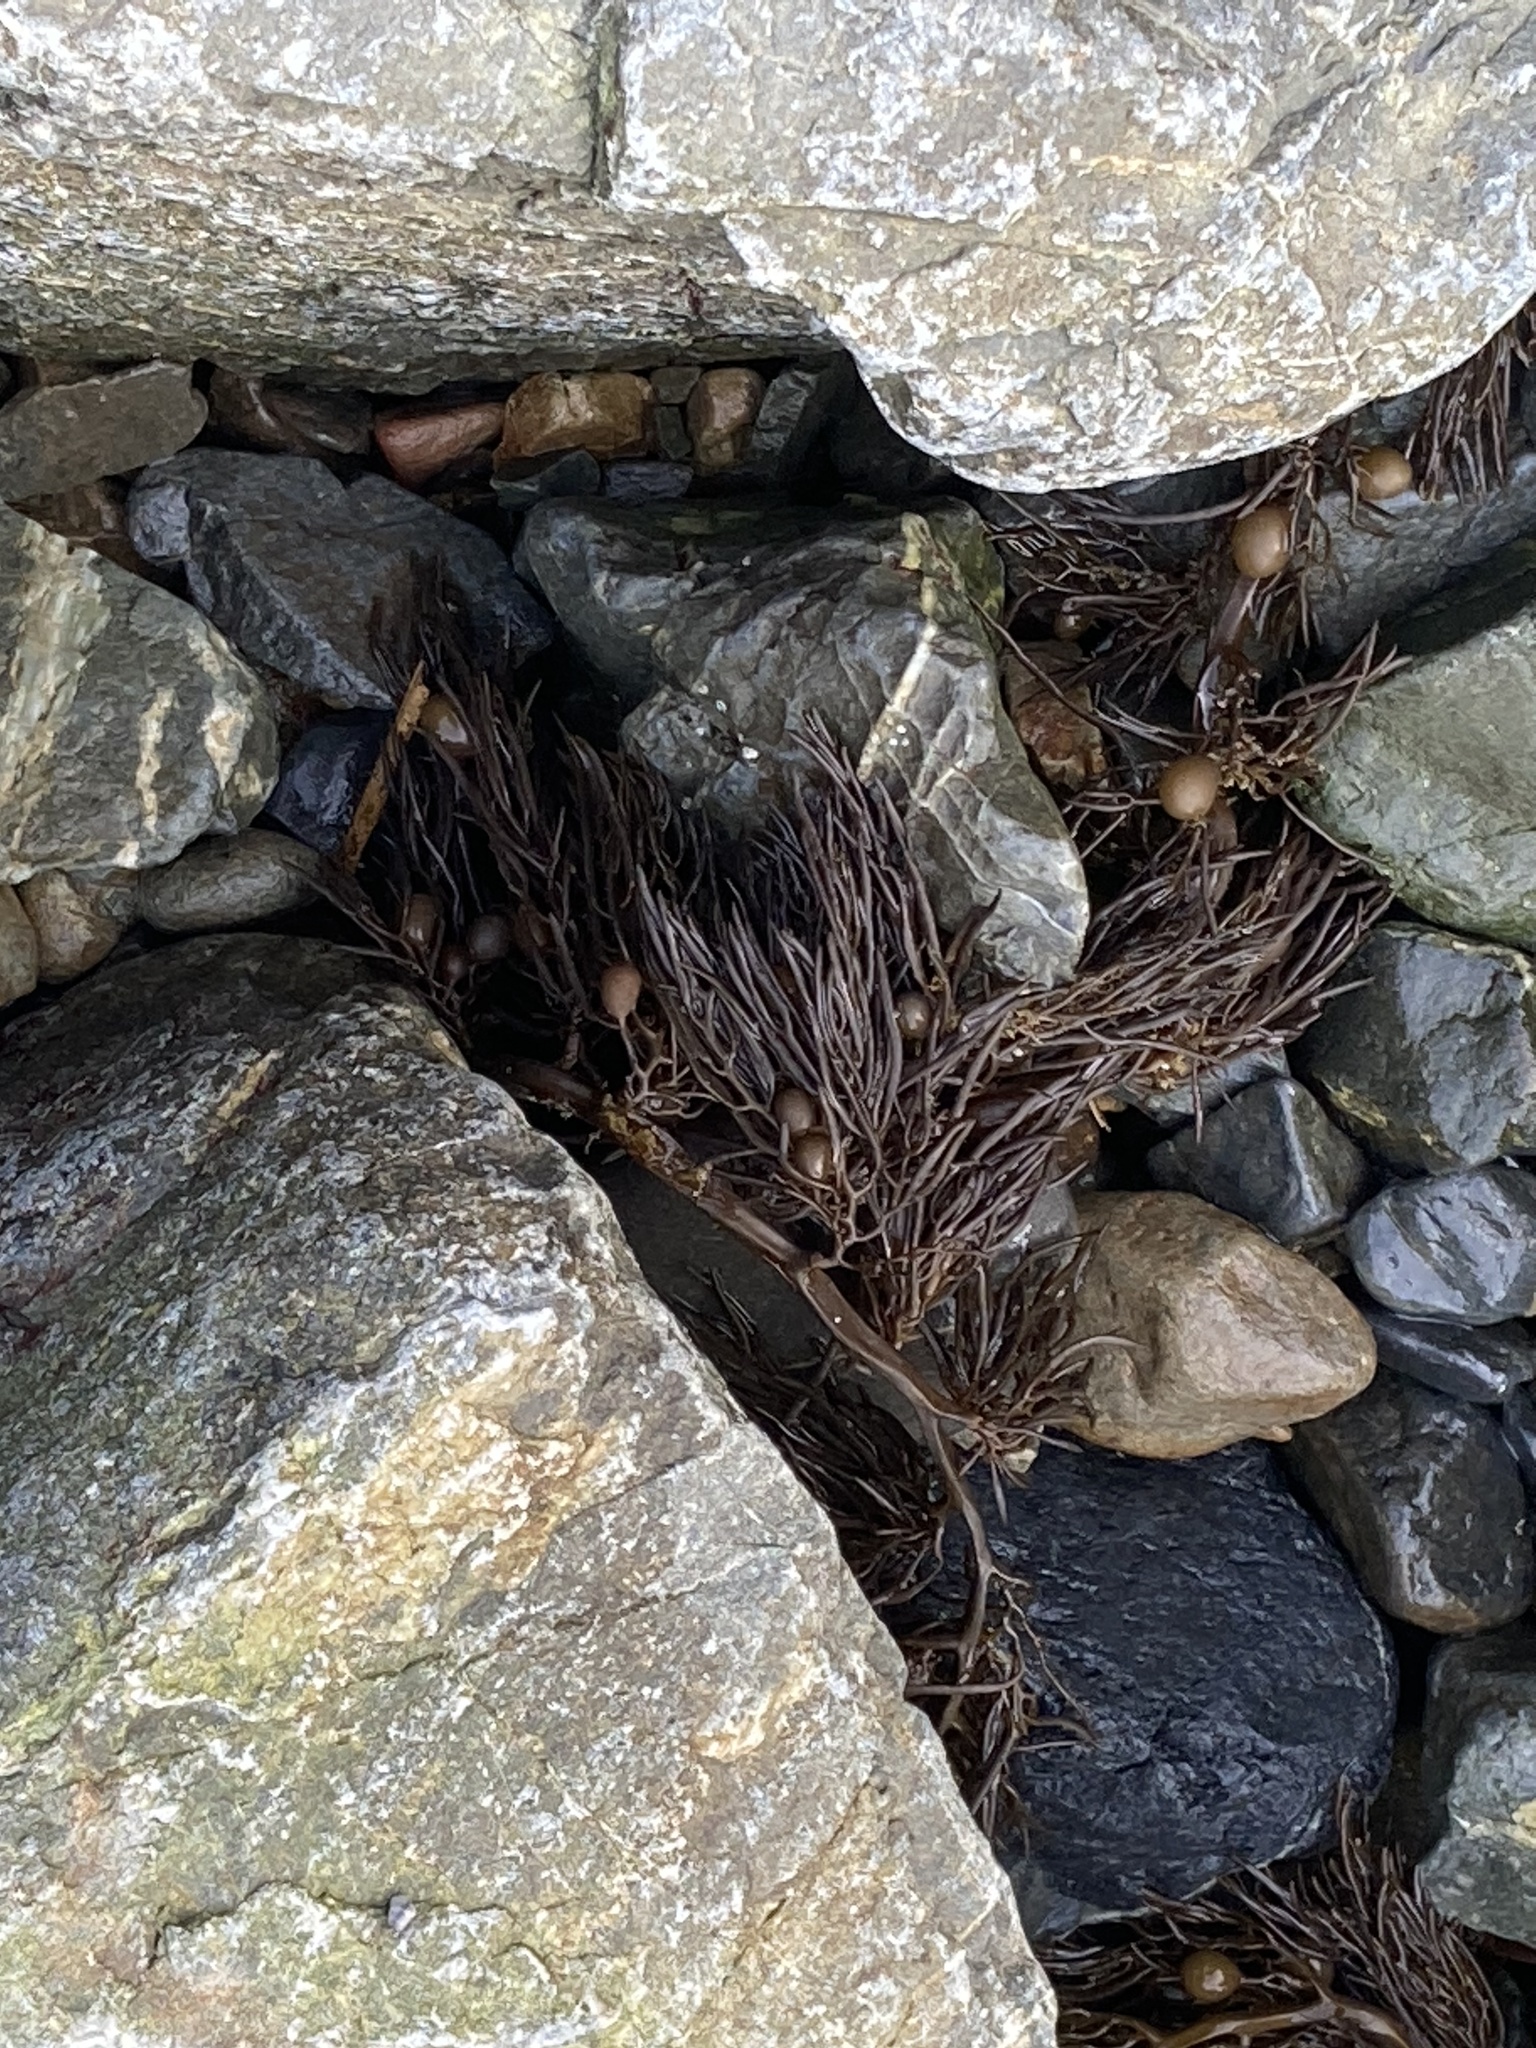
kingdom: Chromista
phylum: Ochrophyta
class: Phaeophyceae
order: Fucales
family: Sargassaceae
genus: Cystophora
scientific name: Cystophora retroflexa
